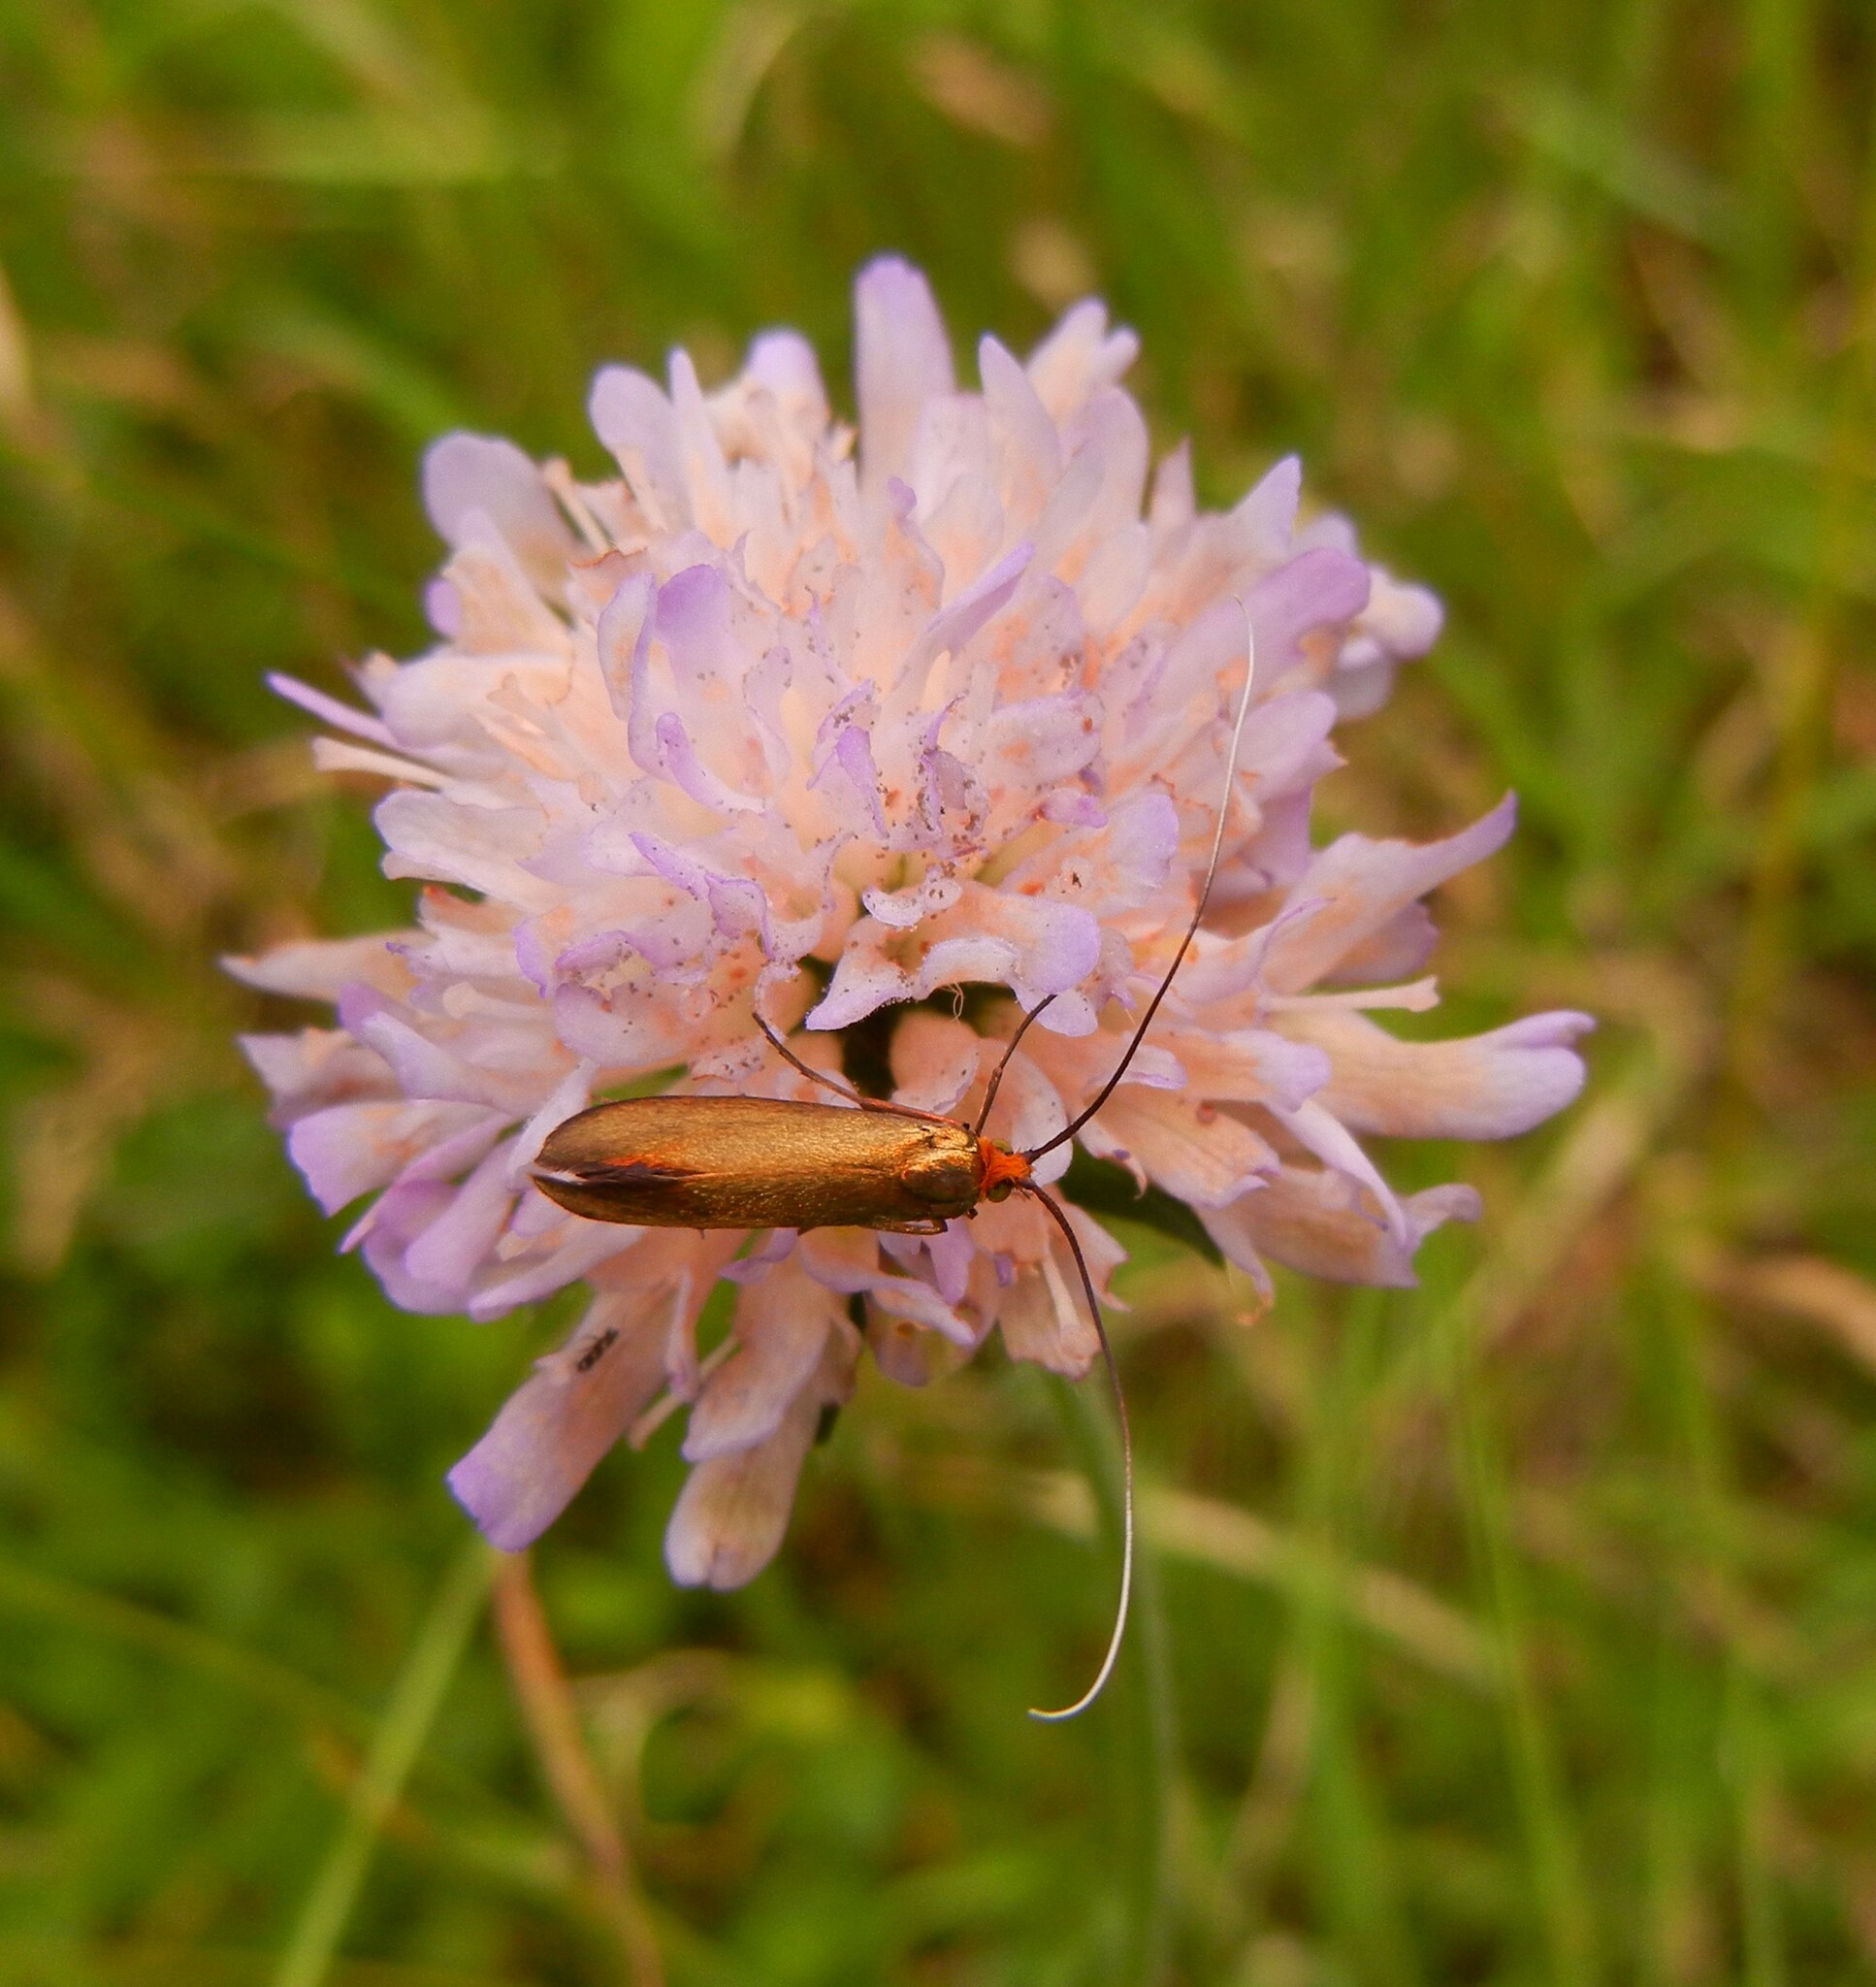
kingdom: Animalia
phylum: Arthropoda
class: Insecta
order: Lepidoptera
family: Adelidae
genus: Nemophora
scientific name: Nemophora metallica
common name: Brassy long-horn
